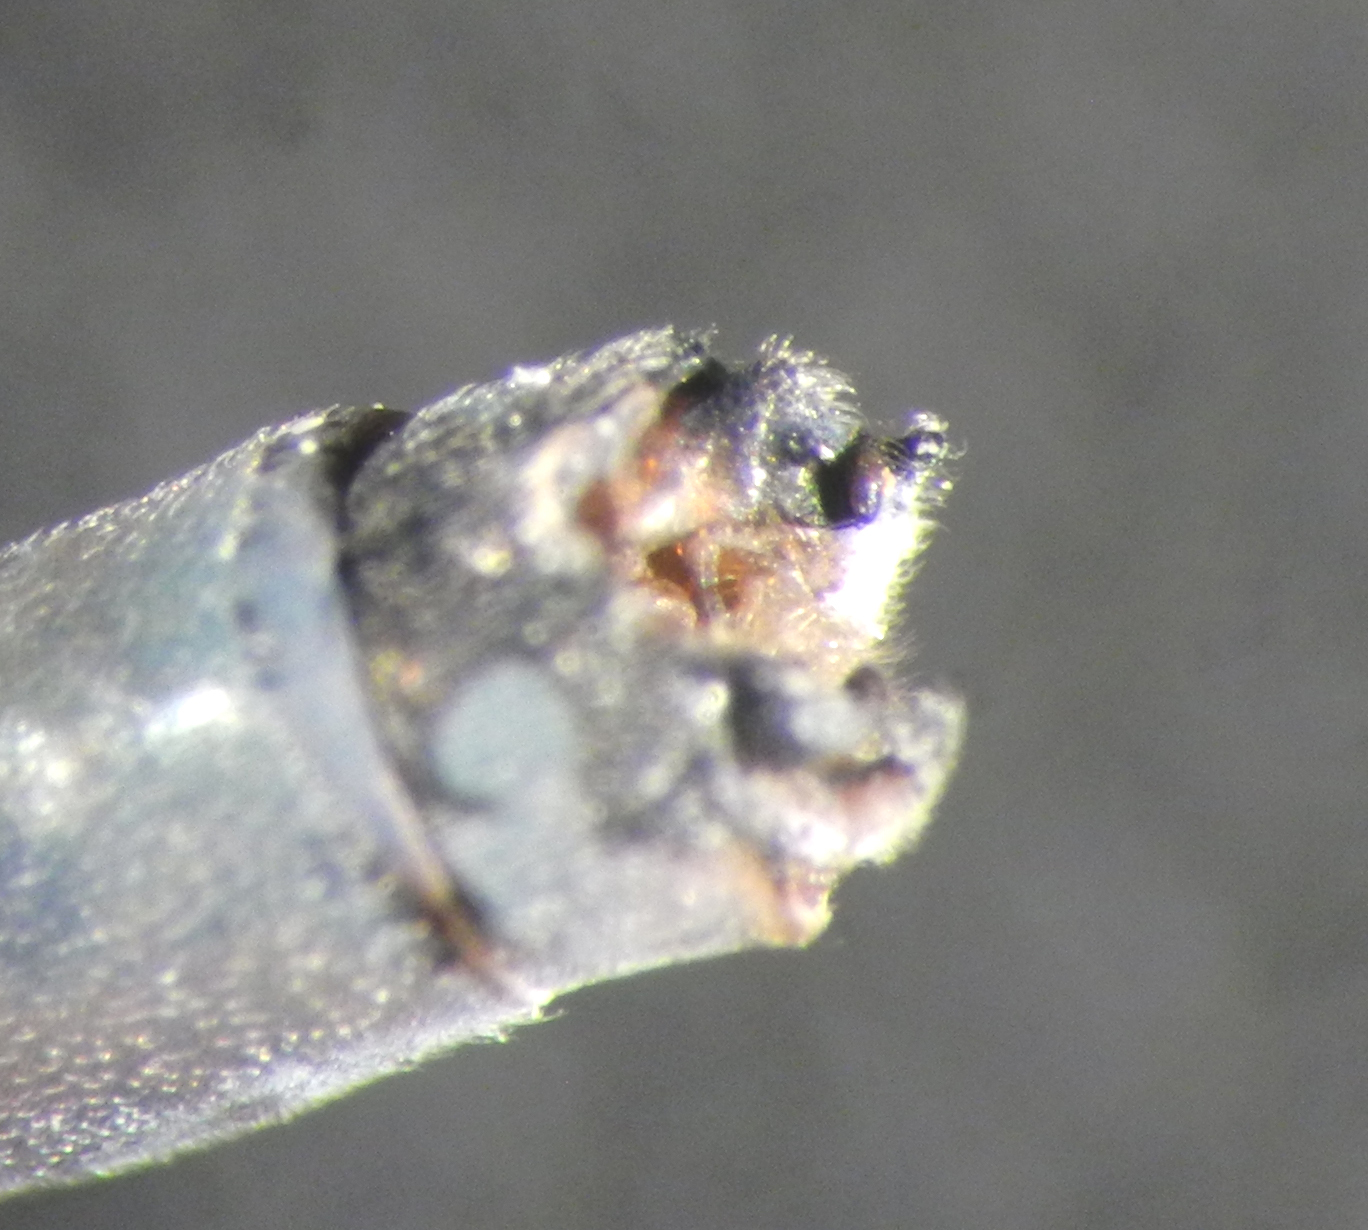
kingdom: Animalia
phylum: Arthropoda
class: Insecta
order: Odonata
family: Coenagrionidae
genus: Enallagma
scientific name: Enallagma vernale
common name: Vernal bluet
